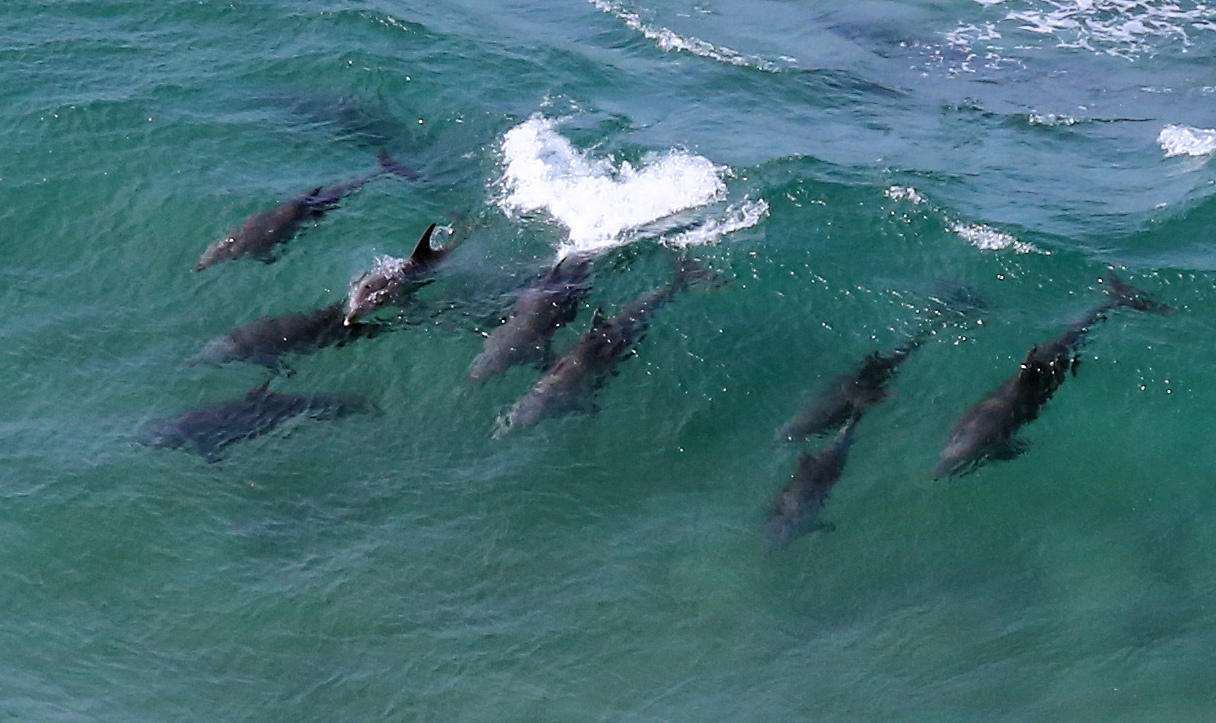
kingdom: Animalia
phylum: Chordata
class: Mammalia
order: Cetacea
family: Delphinidae
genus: Tursiops
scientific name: Tursiops aduncus
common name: Indo-pacific bottlenose dolphin
